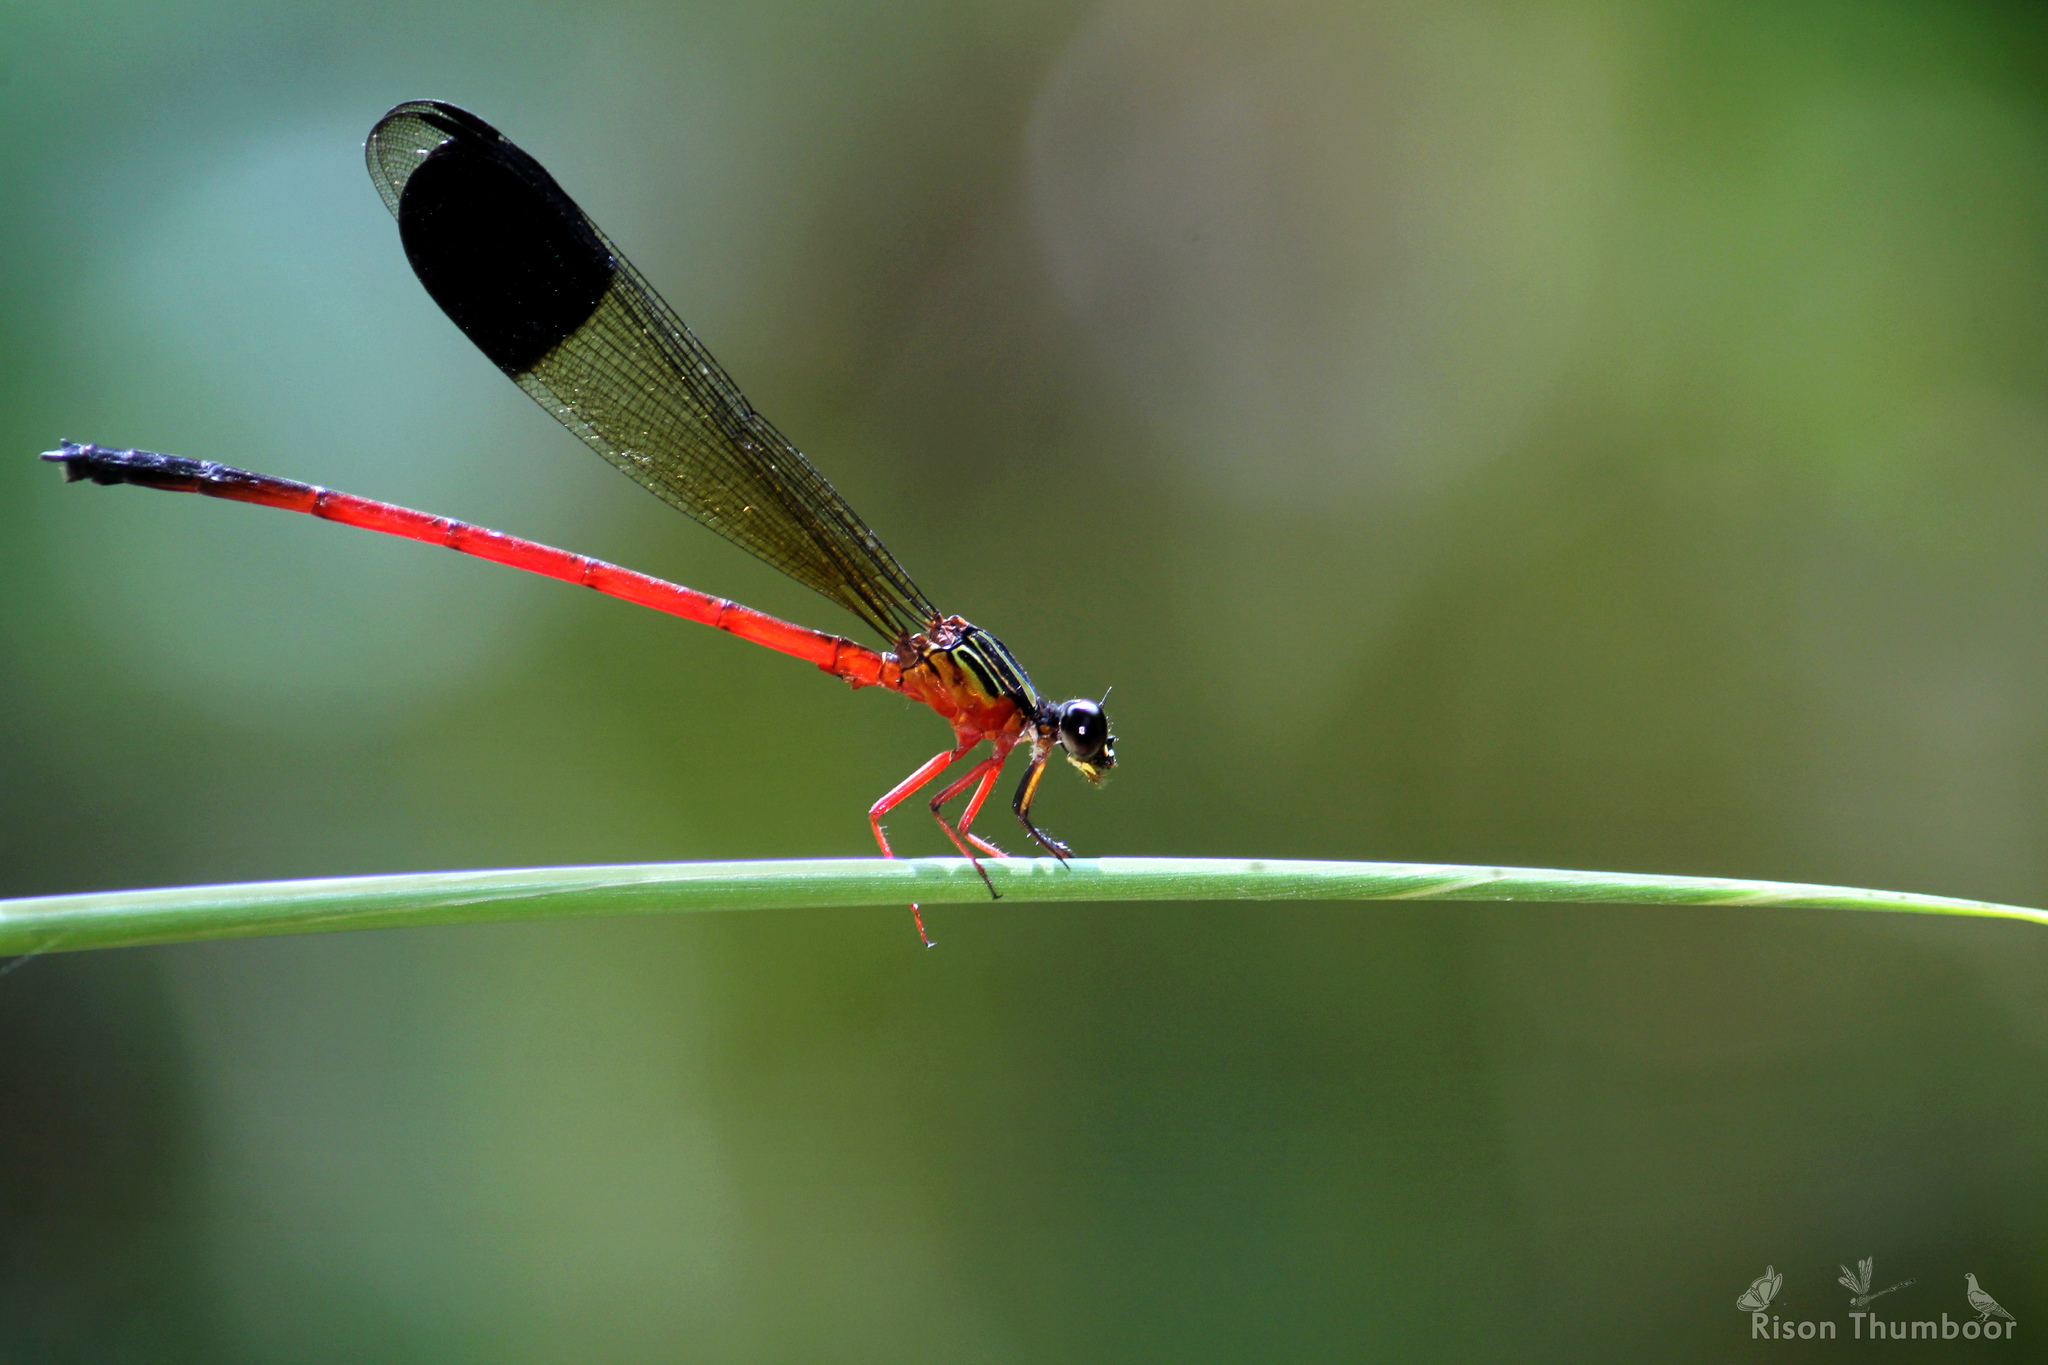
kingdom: Animalia
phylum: Arthropoda
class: Insecta
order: Odonata
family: Euphaeidae
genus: Euphaea
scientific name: Euphaea fraseri
